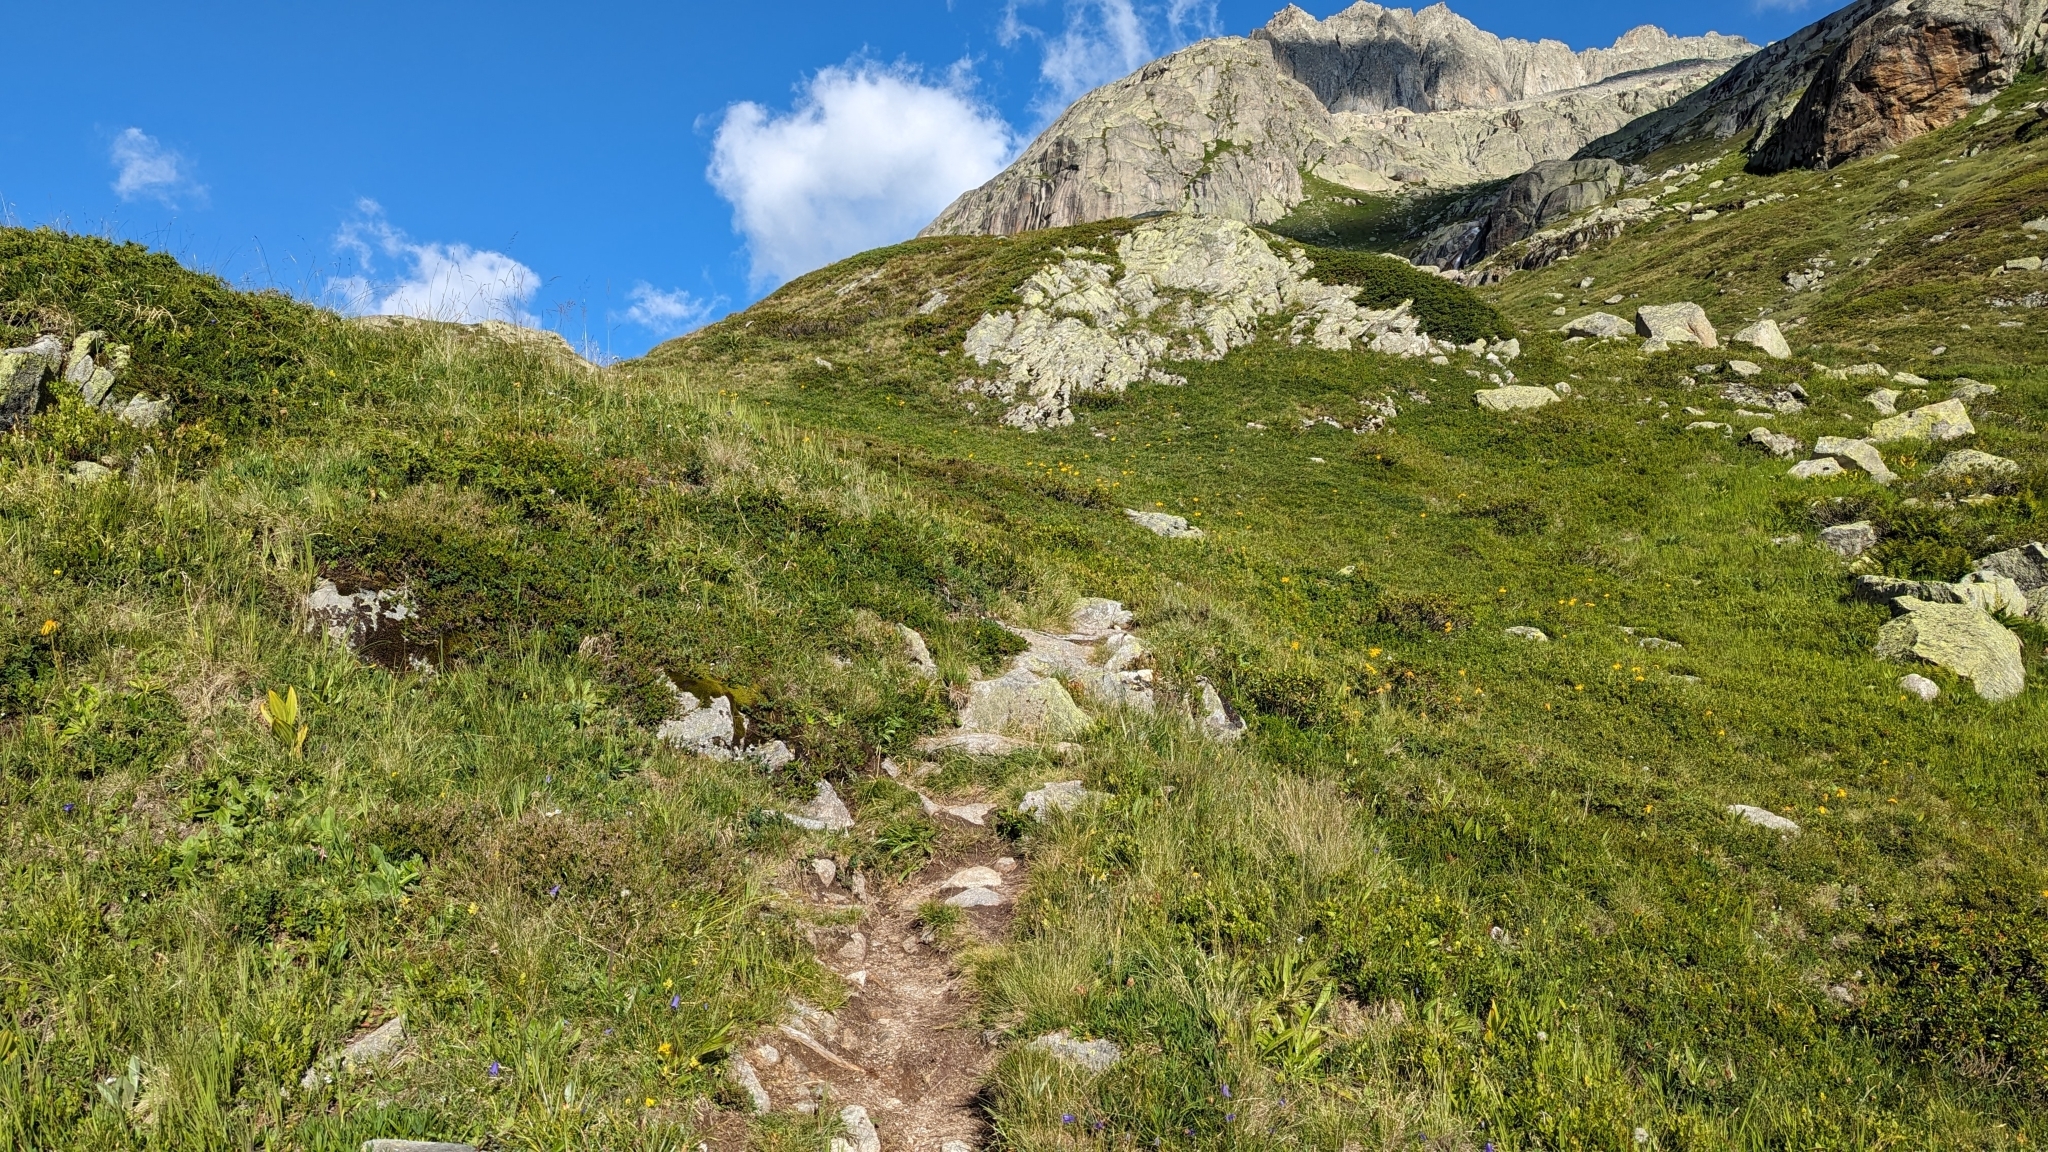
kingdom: Animalia
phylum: Arthropoda
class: Insecta
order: Hymenoptera
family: Formicidae
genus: Manica
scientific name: Manica rubida
